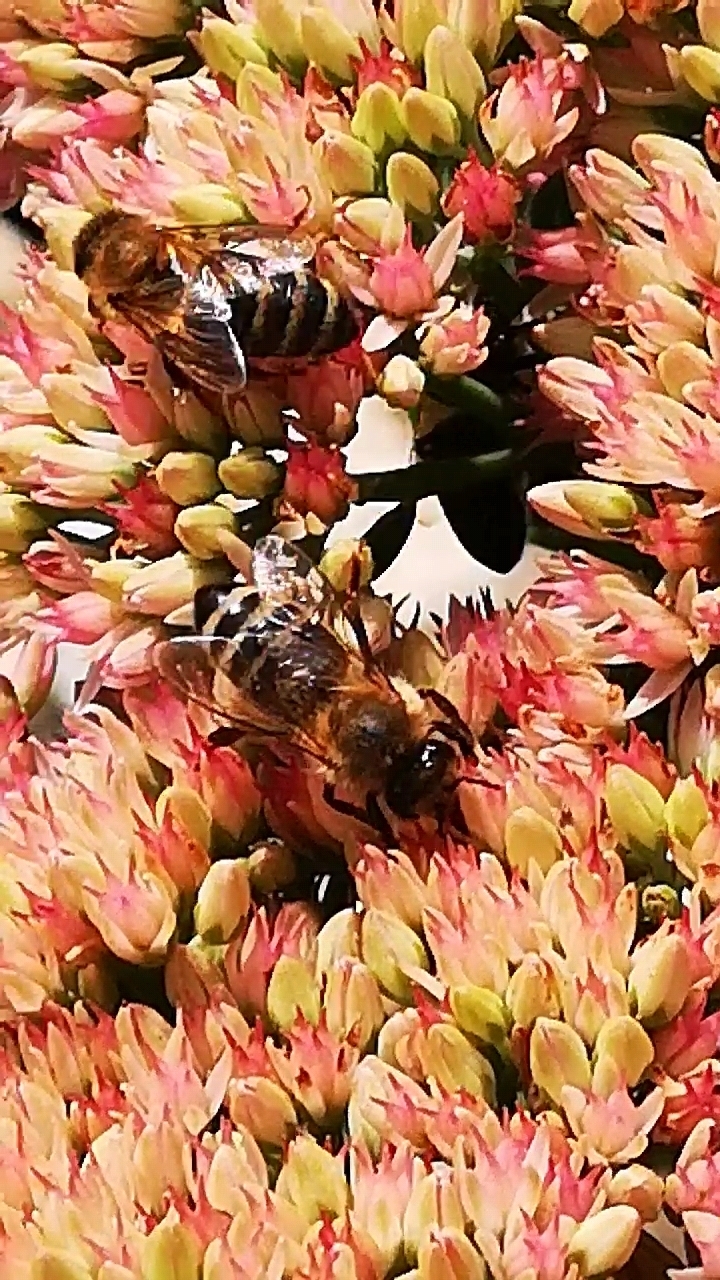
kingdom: Animalia
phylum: Arthropoda
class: Insecta
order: Hymenoptera
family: Apidae
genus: Apis
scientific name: Apis mellifera
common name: Honey bee
